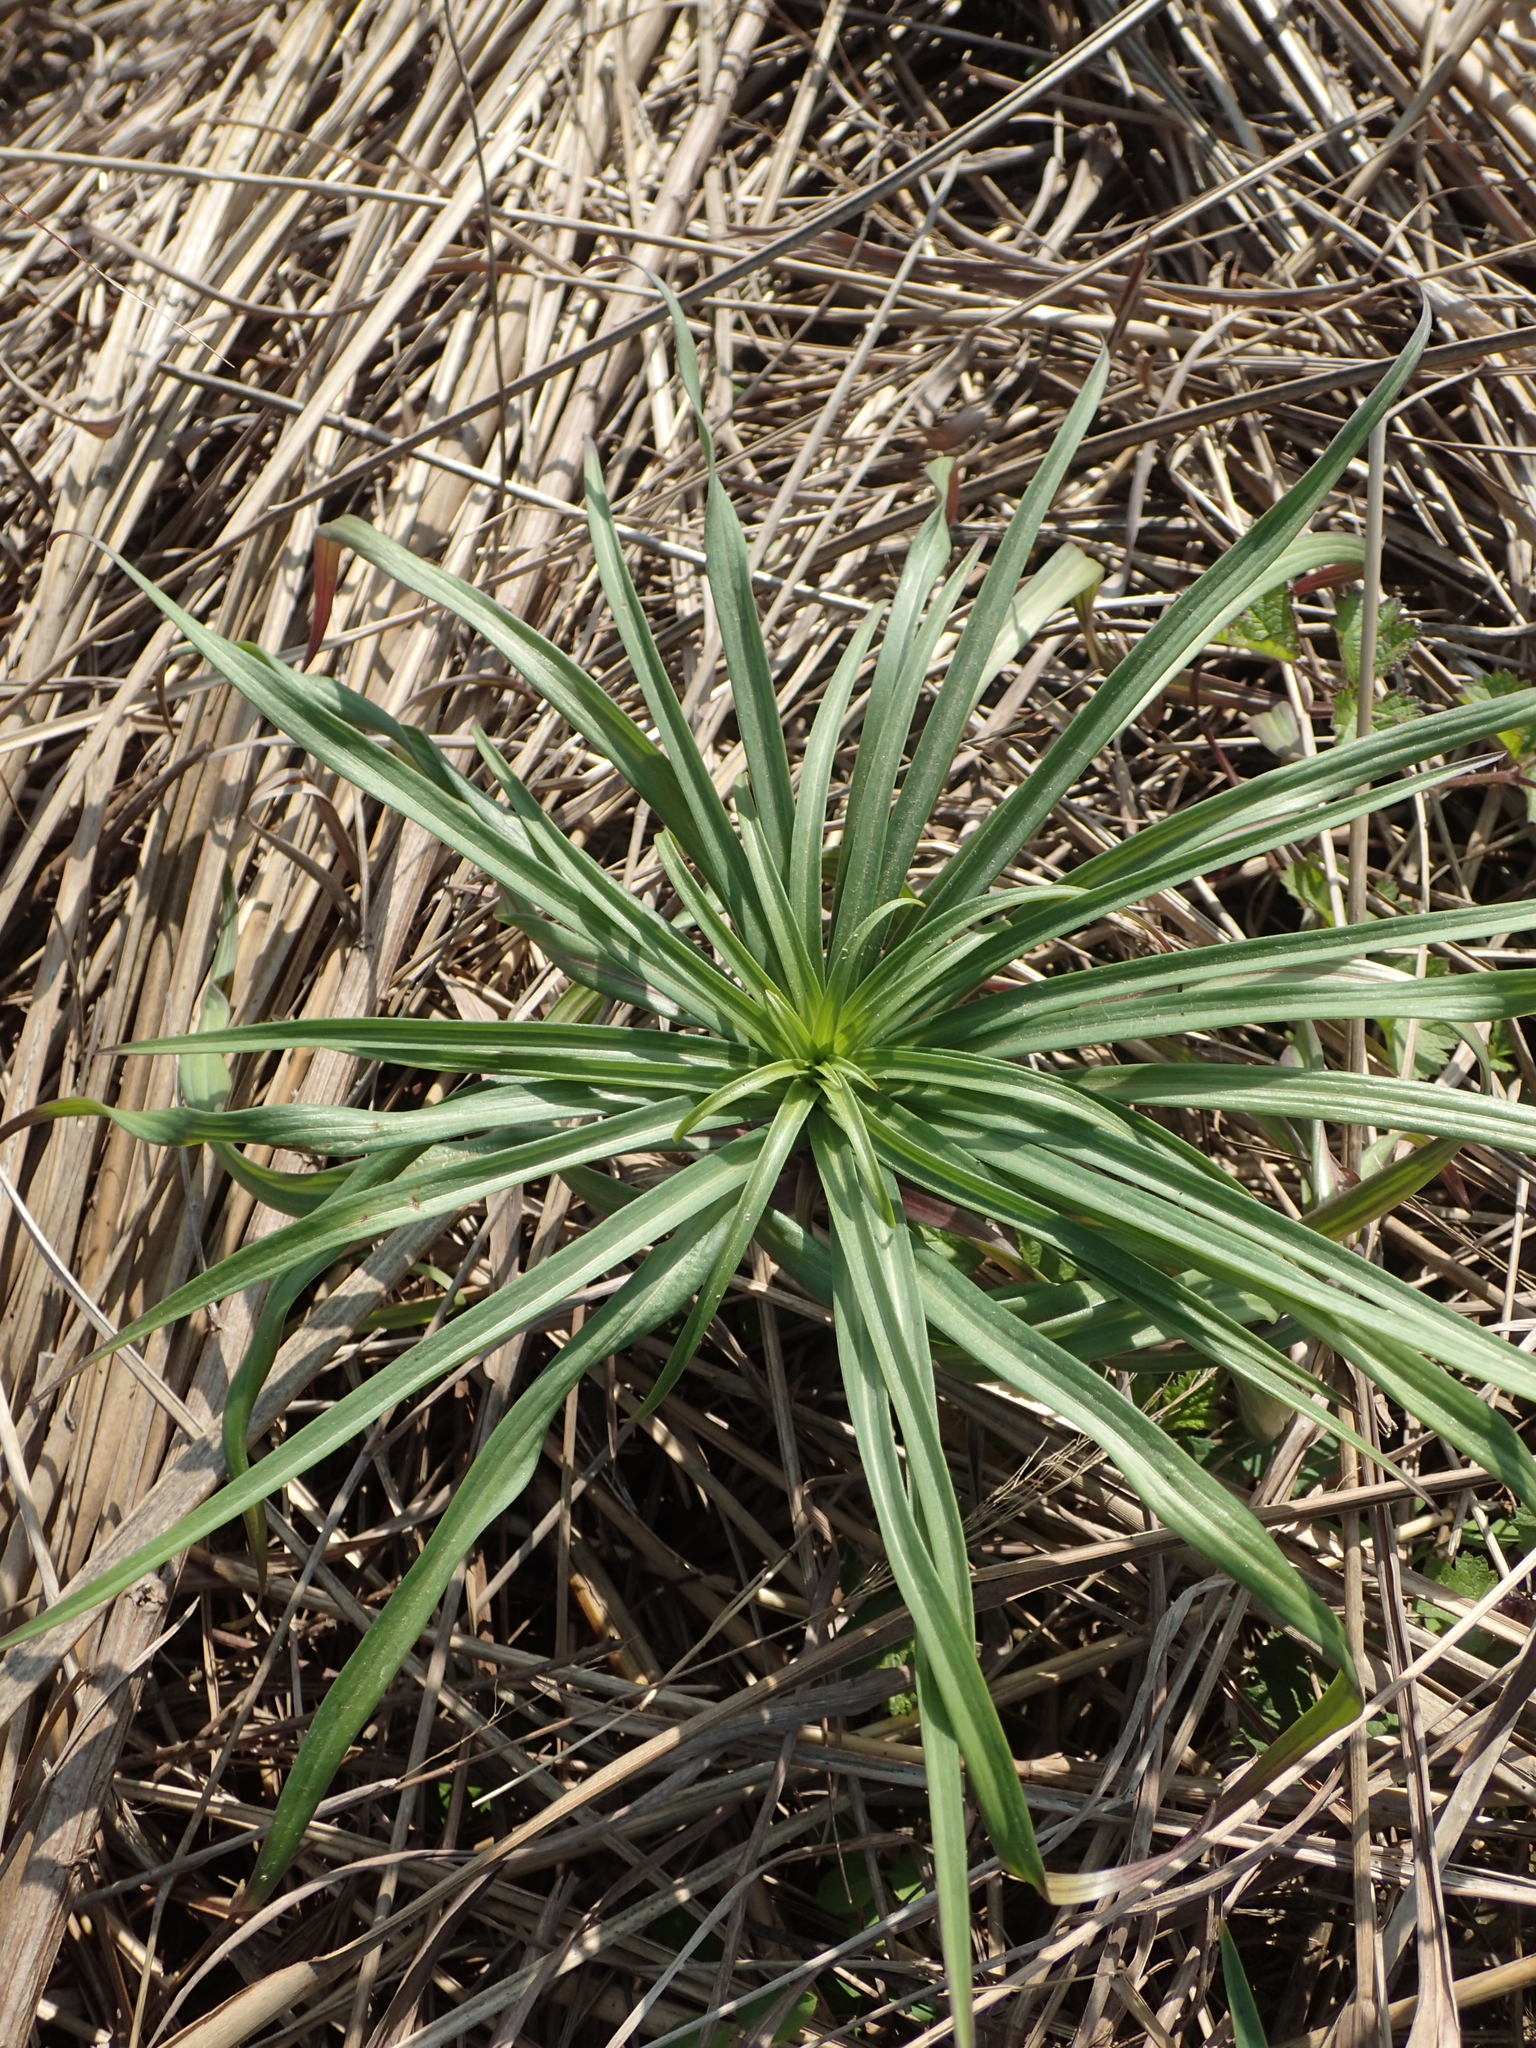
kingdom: Plantae
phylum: Tracheophyta
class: Liliopsida
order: Liliales
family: Liliaceae
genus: Lilium
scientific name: Lilium formosanum
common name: Formosa lily
